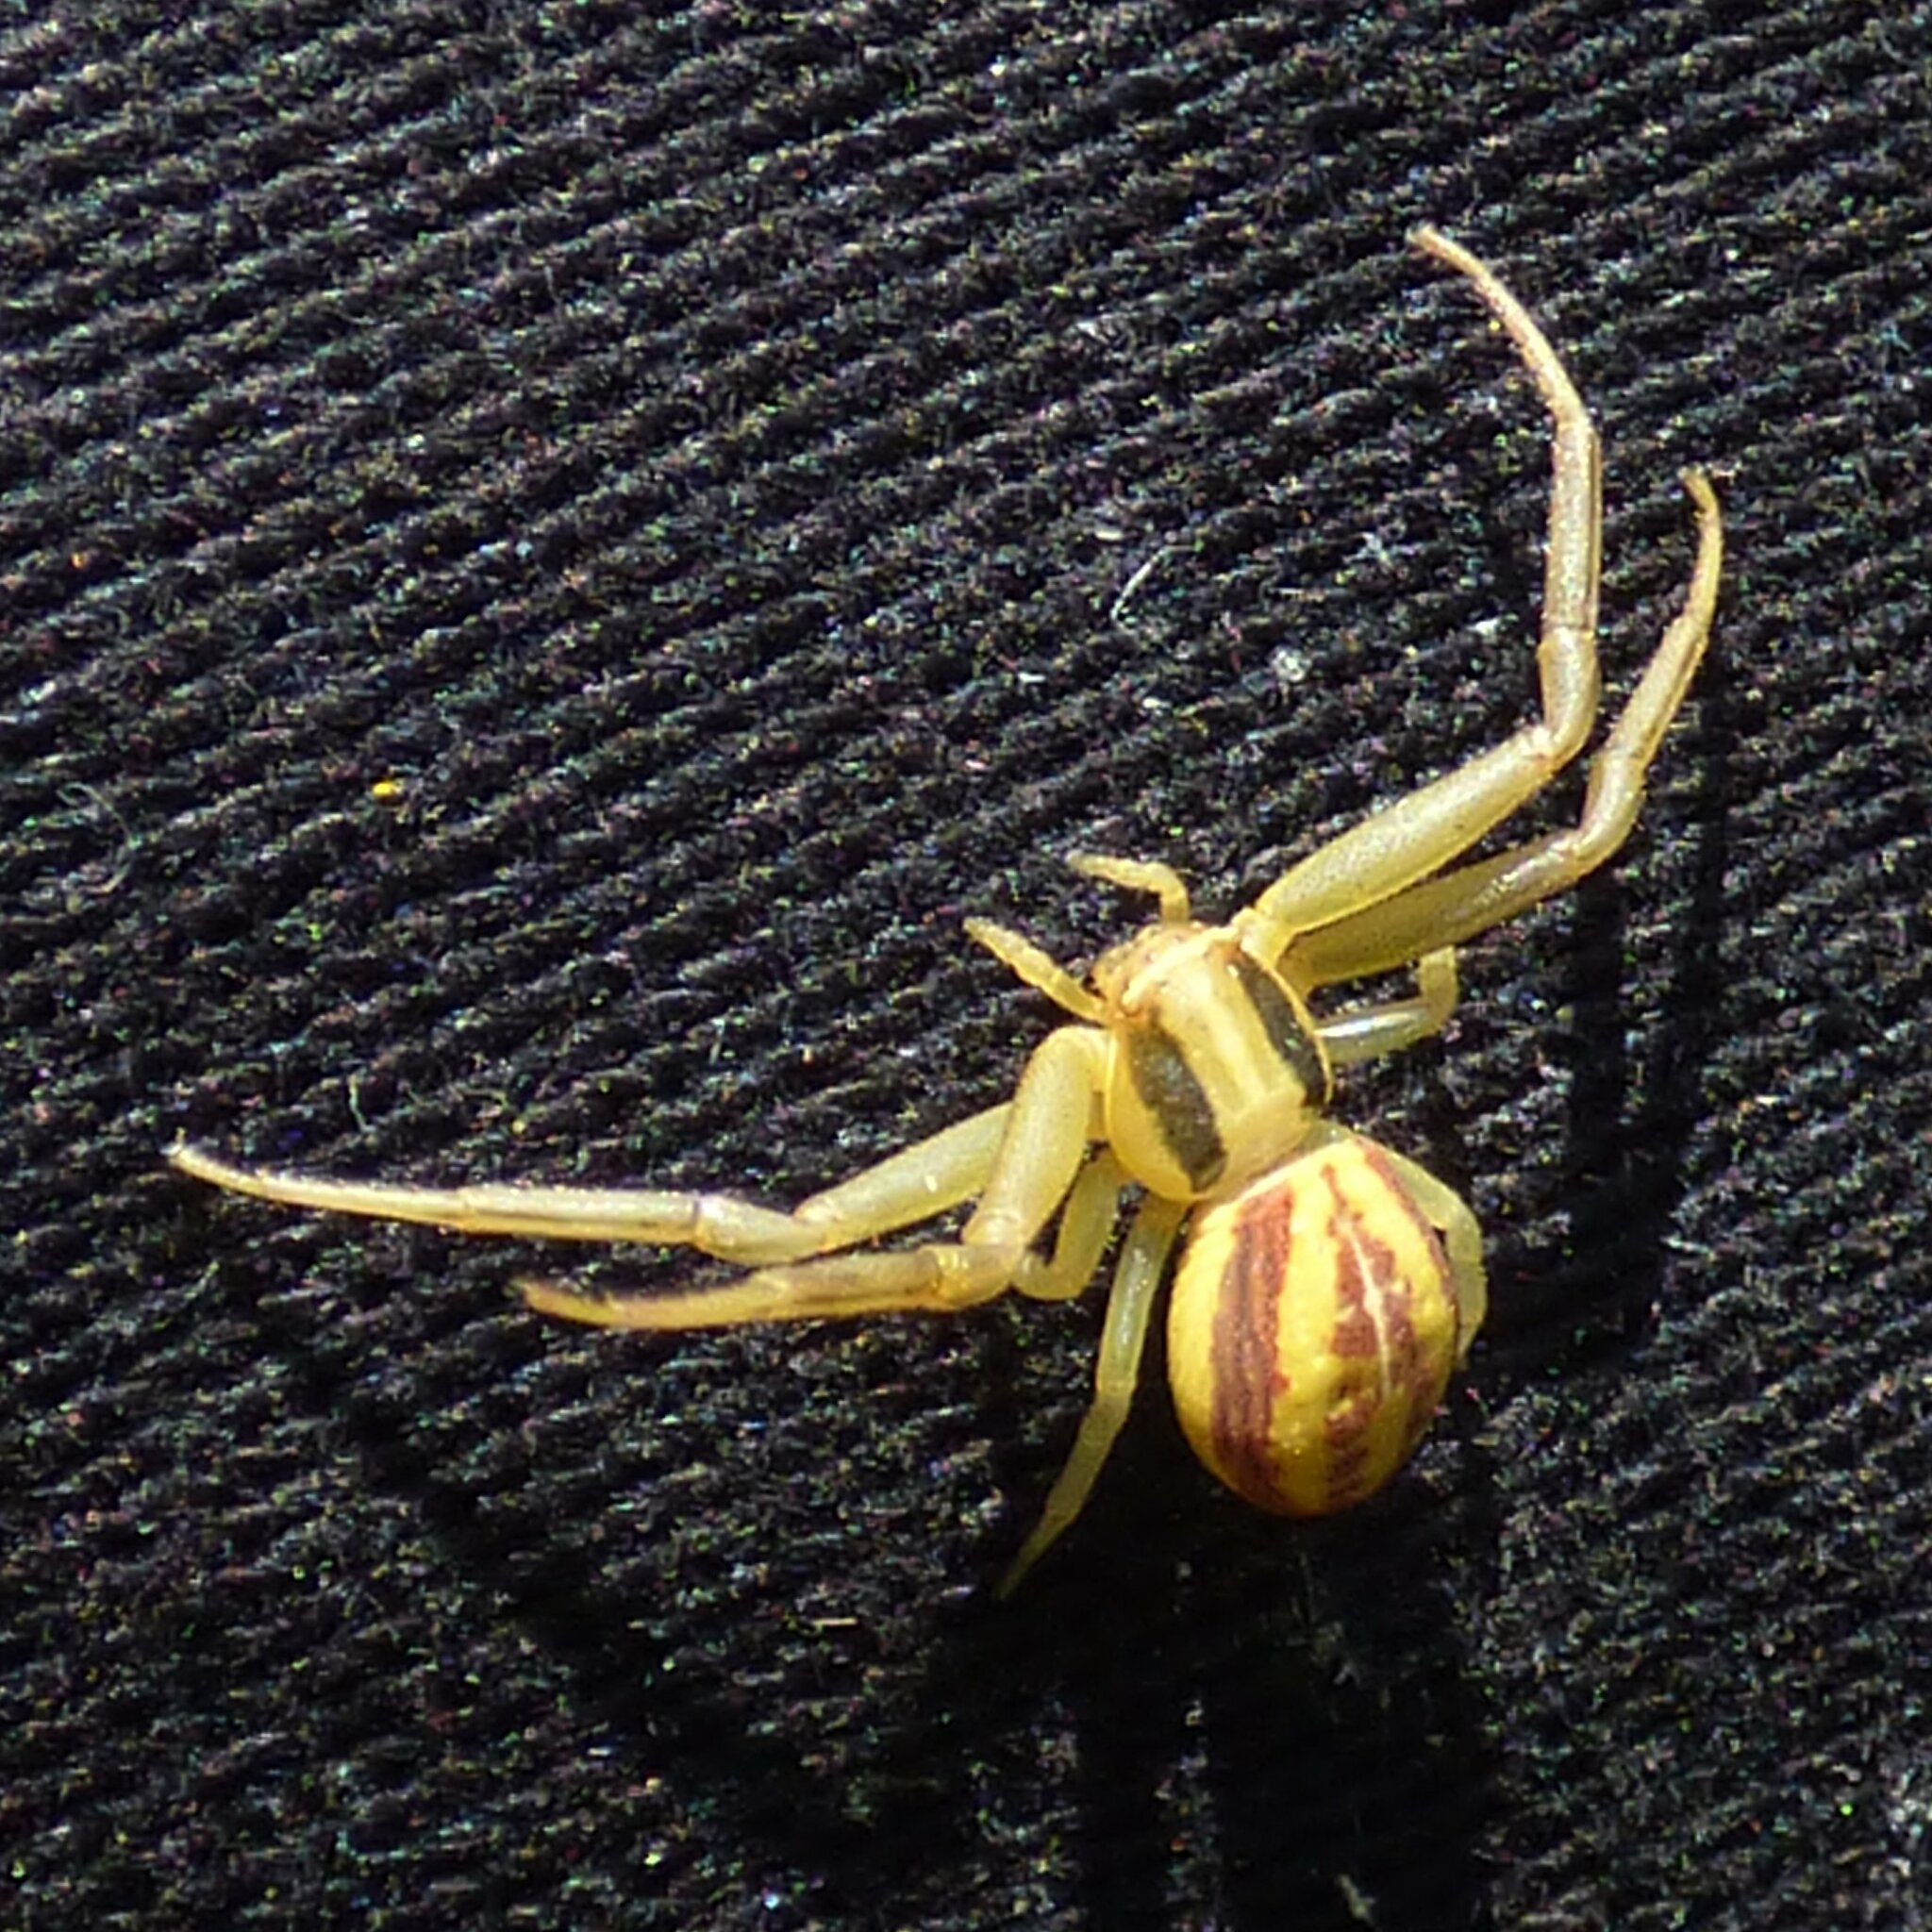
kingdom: Animalia
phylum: Arthropoda
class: Arachnida
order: Araneae
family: Thomisidae
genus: Runcinia
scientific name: Runcinia grammica
